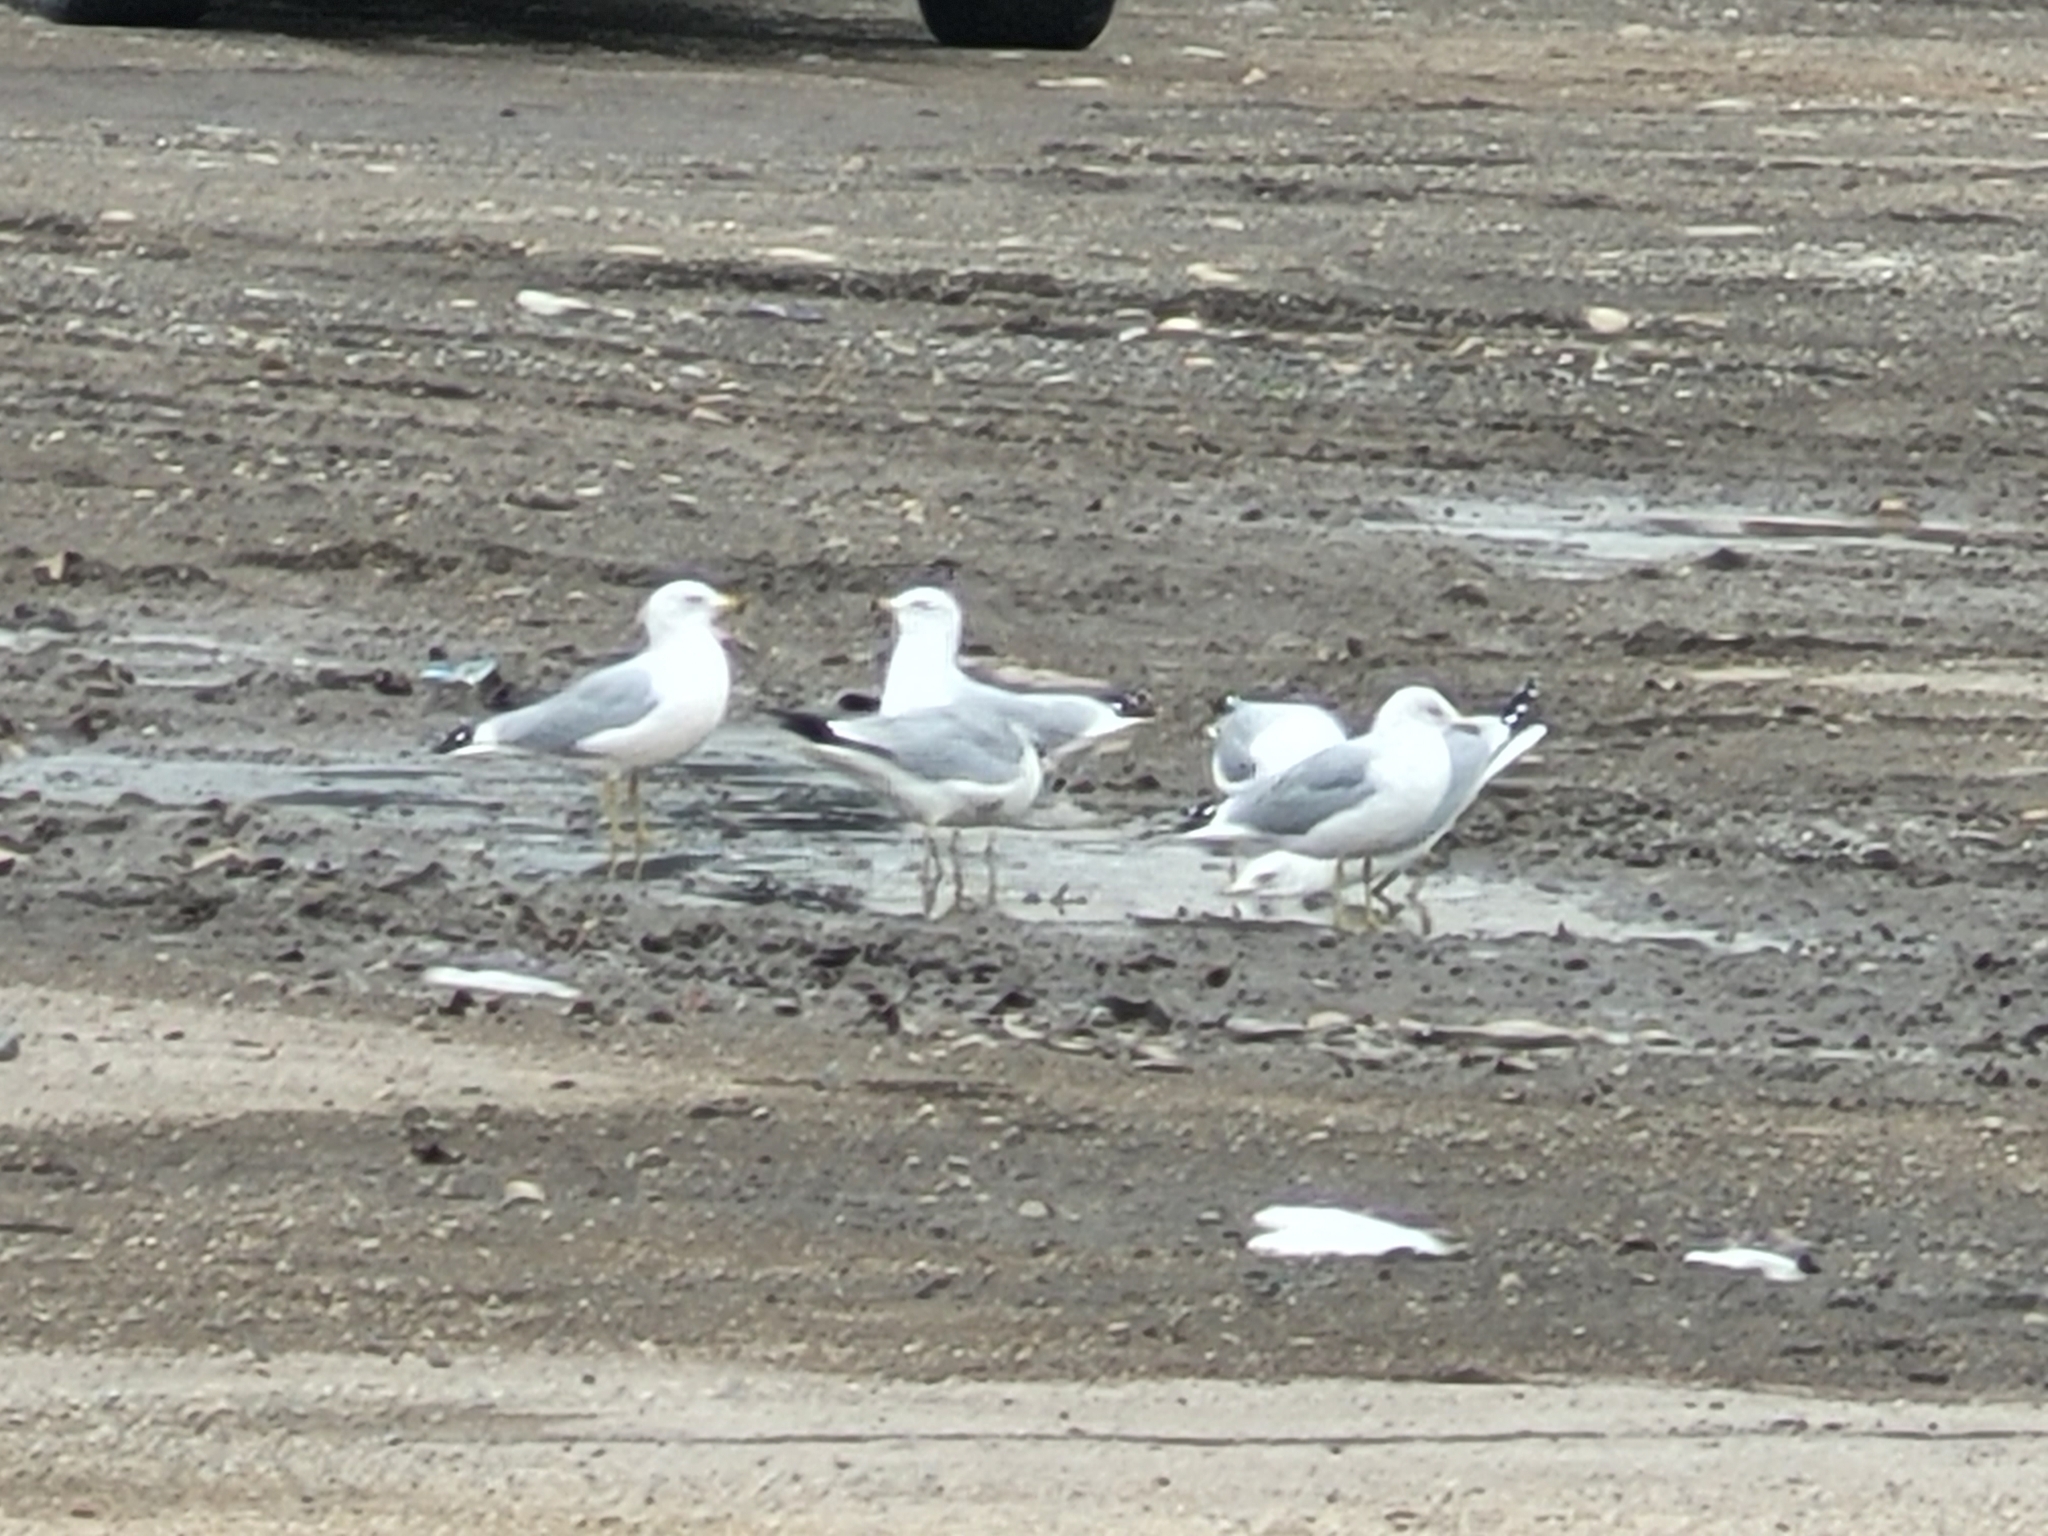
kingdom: Animalia
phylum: Chordata
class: Aves
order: Charadriiformes
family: Laridae
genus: Larus
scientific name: Larus delawarensis
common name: Ring-billed gull
